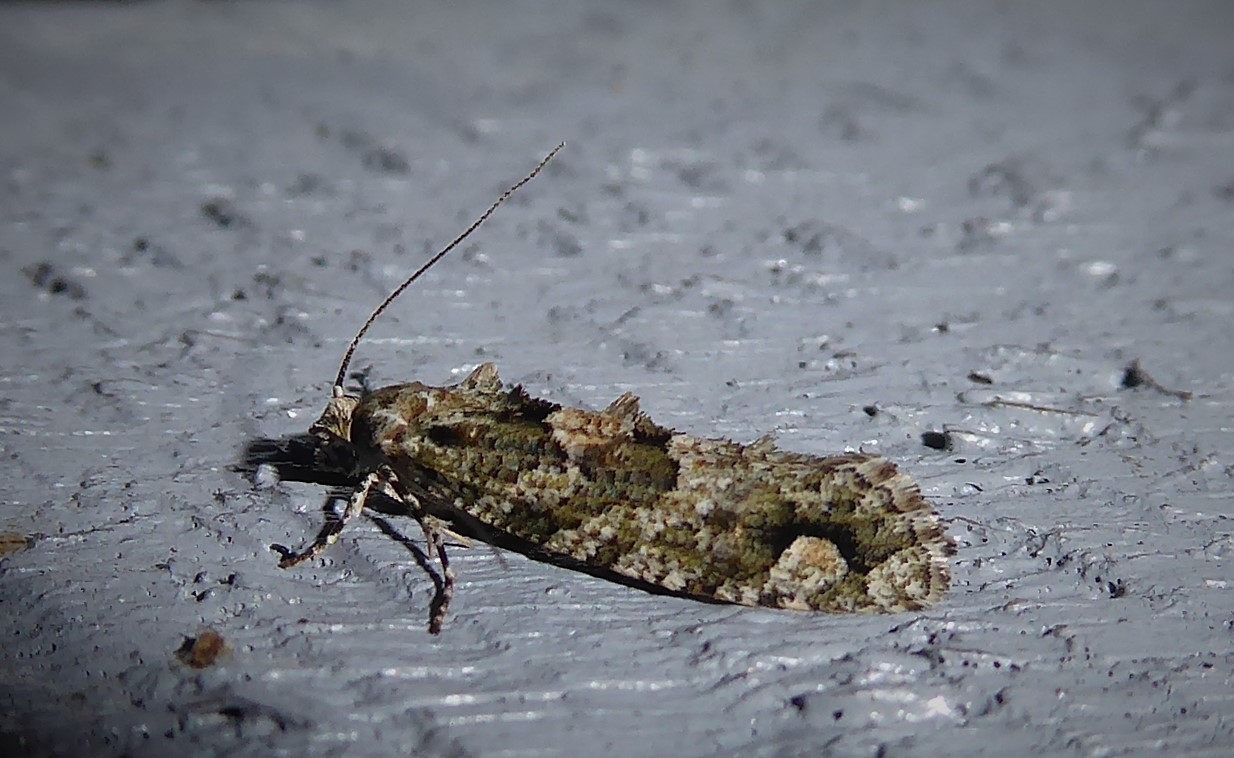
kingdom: Animalia
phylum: Arthropoda
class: Insecta
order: Lepidoptera
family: Tineidae
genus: Lysiphragma
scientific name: Lysiphragma howesii
